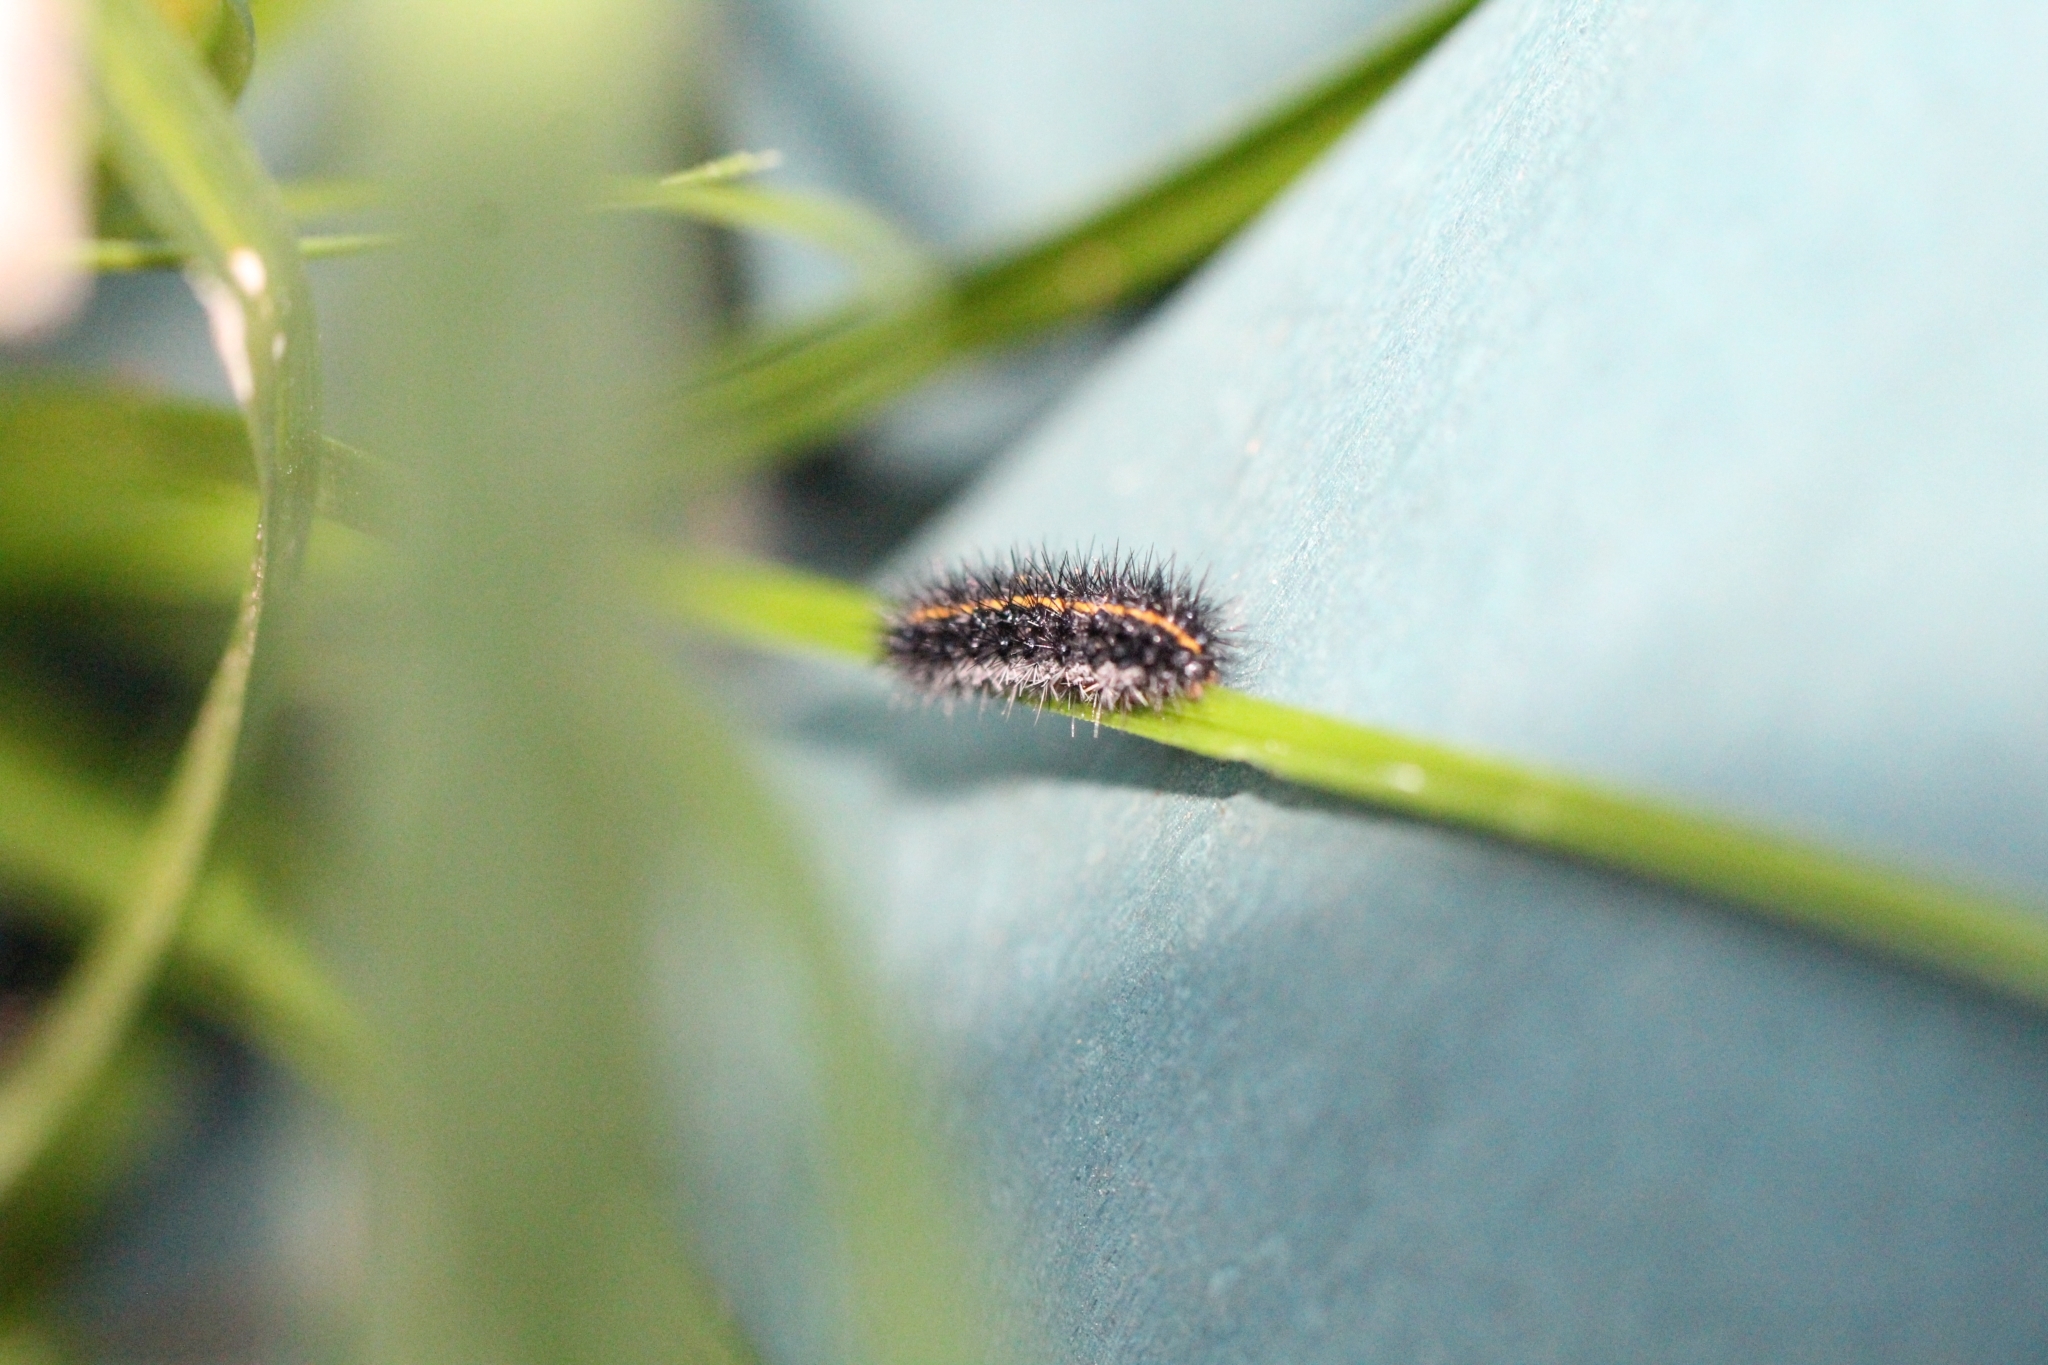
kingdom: Animalia
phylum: Arthropoda
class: Insecta
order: Lepidoptera
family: Erebidae
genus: Coscinia
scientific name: Coscinia Spiris striata
